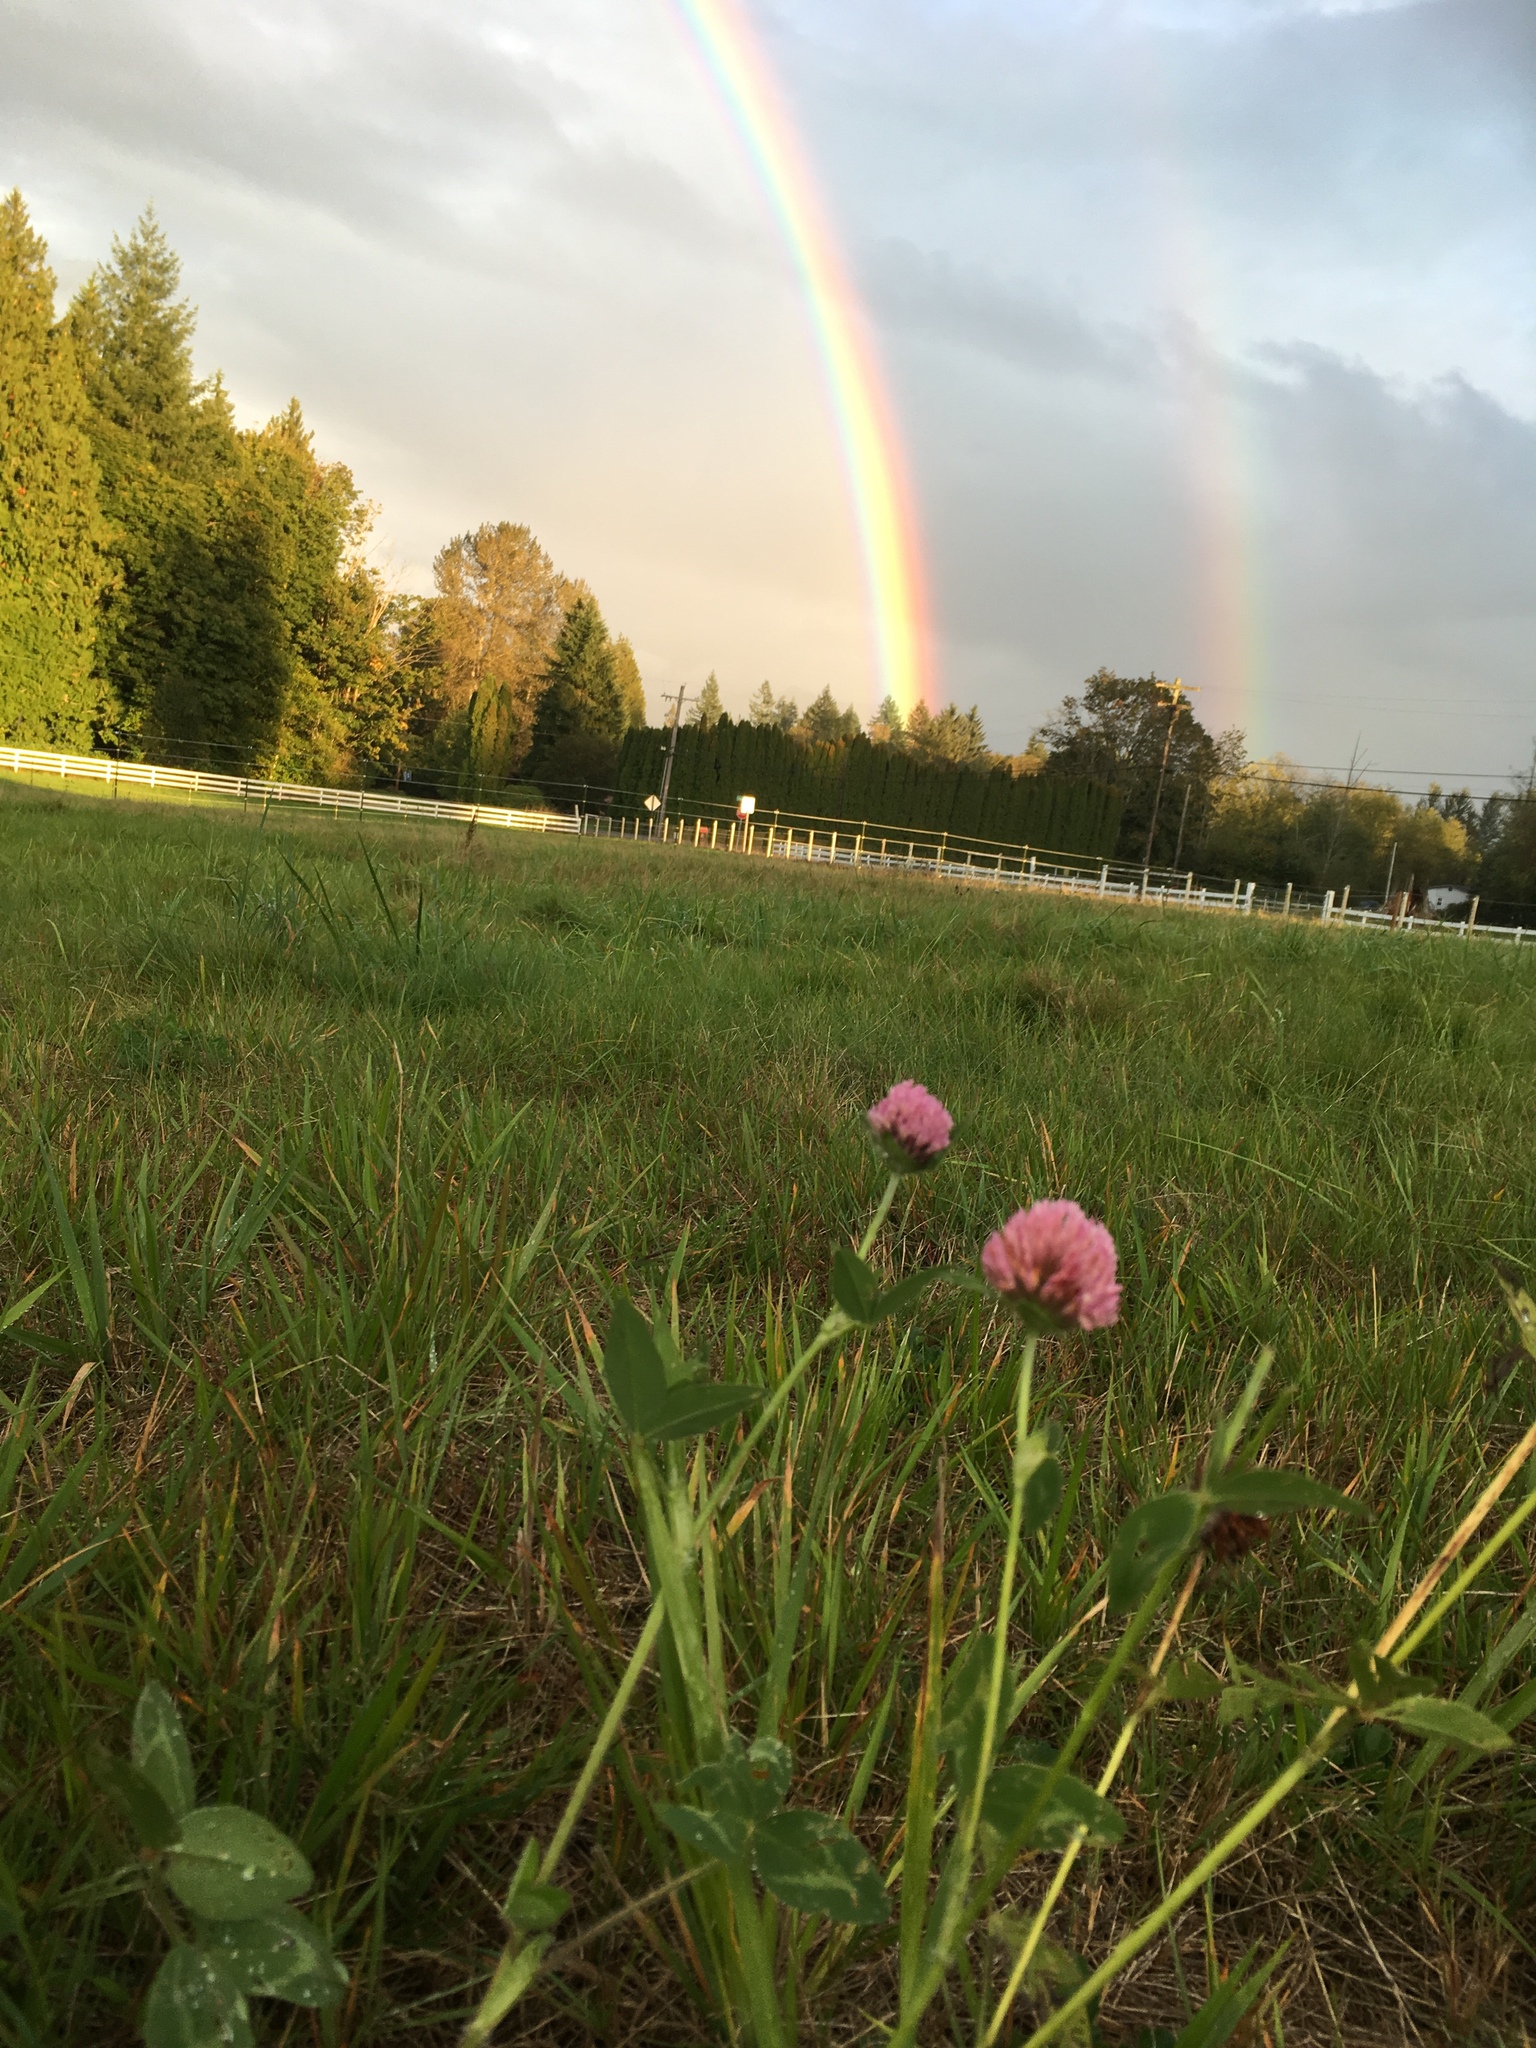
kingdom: Plantae
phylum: Tracheophyta
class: Magnoliopsida
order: Fabales
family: Fabaceae
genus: Trifolium
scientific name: Trifolium pratense
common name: Red clover
